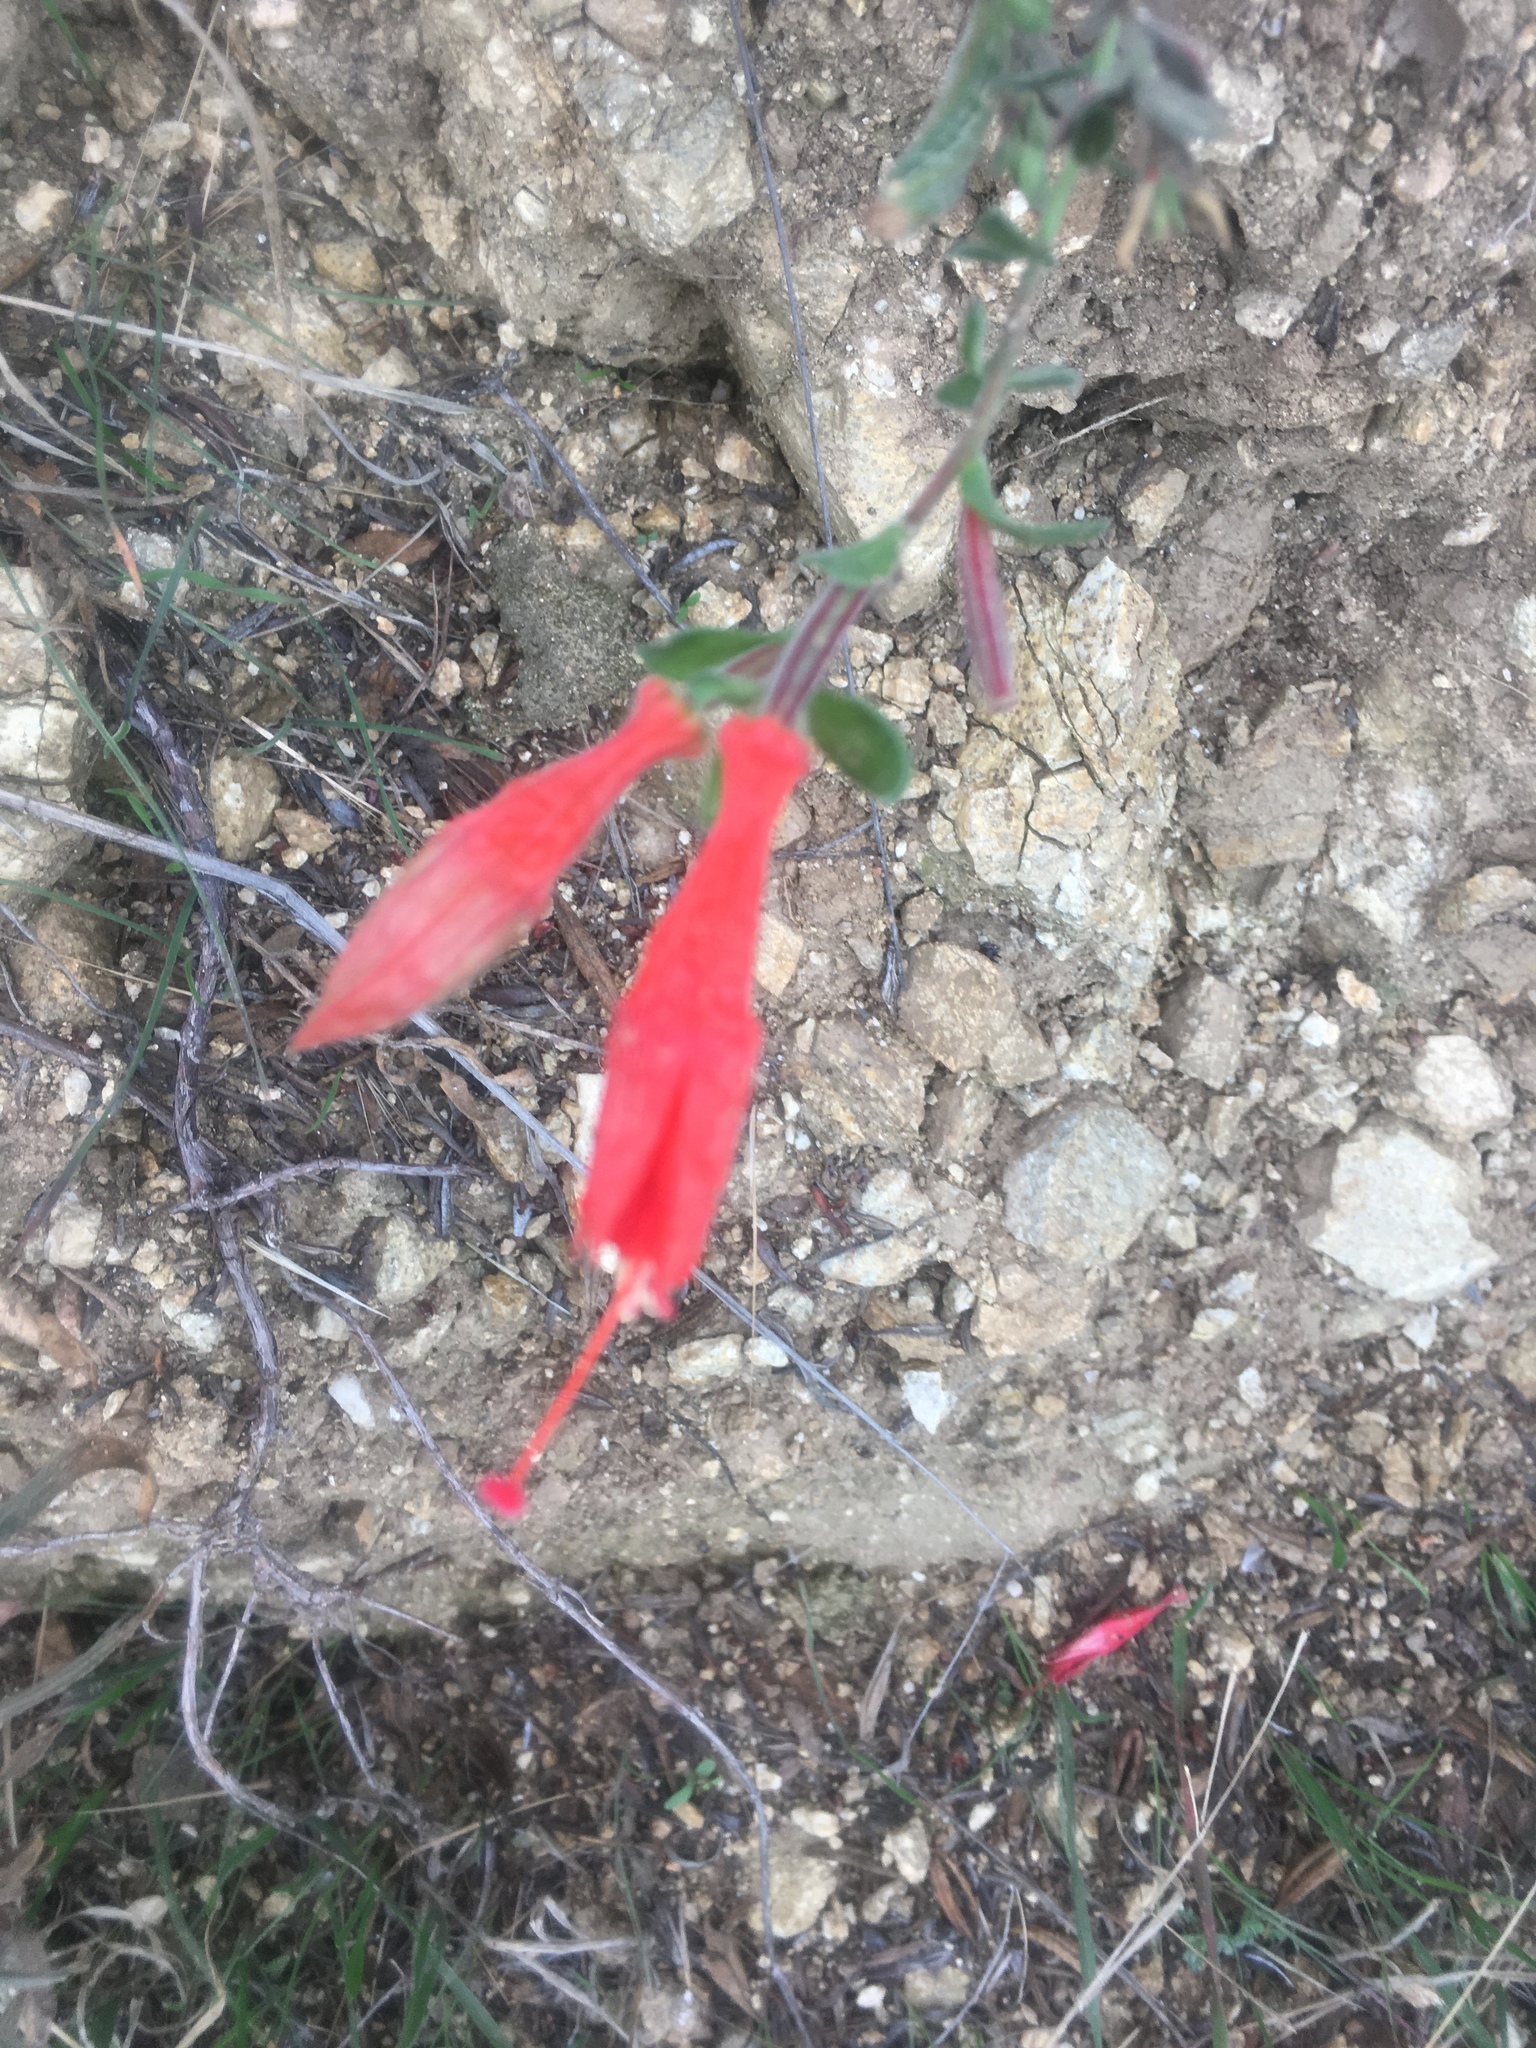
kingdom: Plantae
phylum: Tracheophyta
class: Magnoliopsida
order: Myrtales
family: Onagraceae
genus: Epilobium
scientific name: Epilobium canum
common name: California-fuchsia
